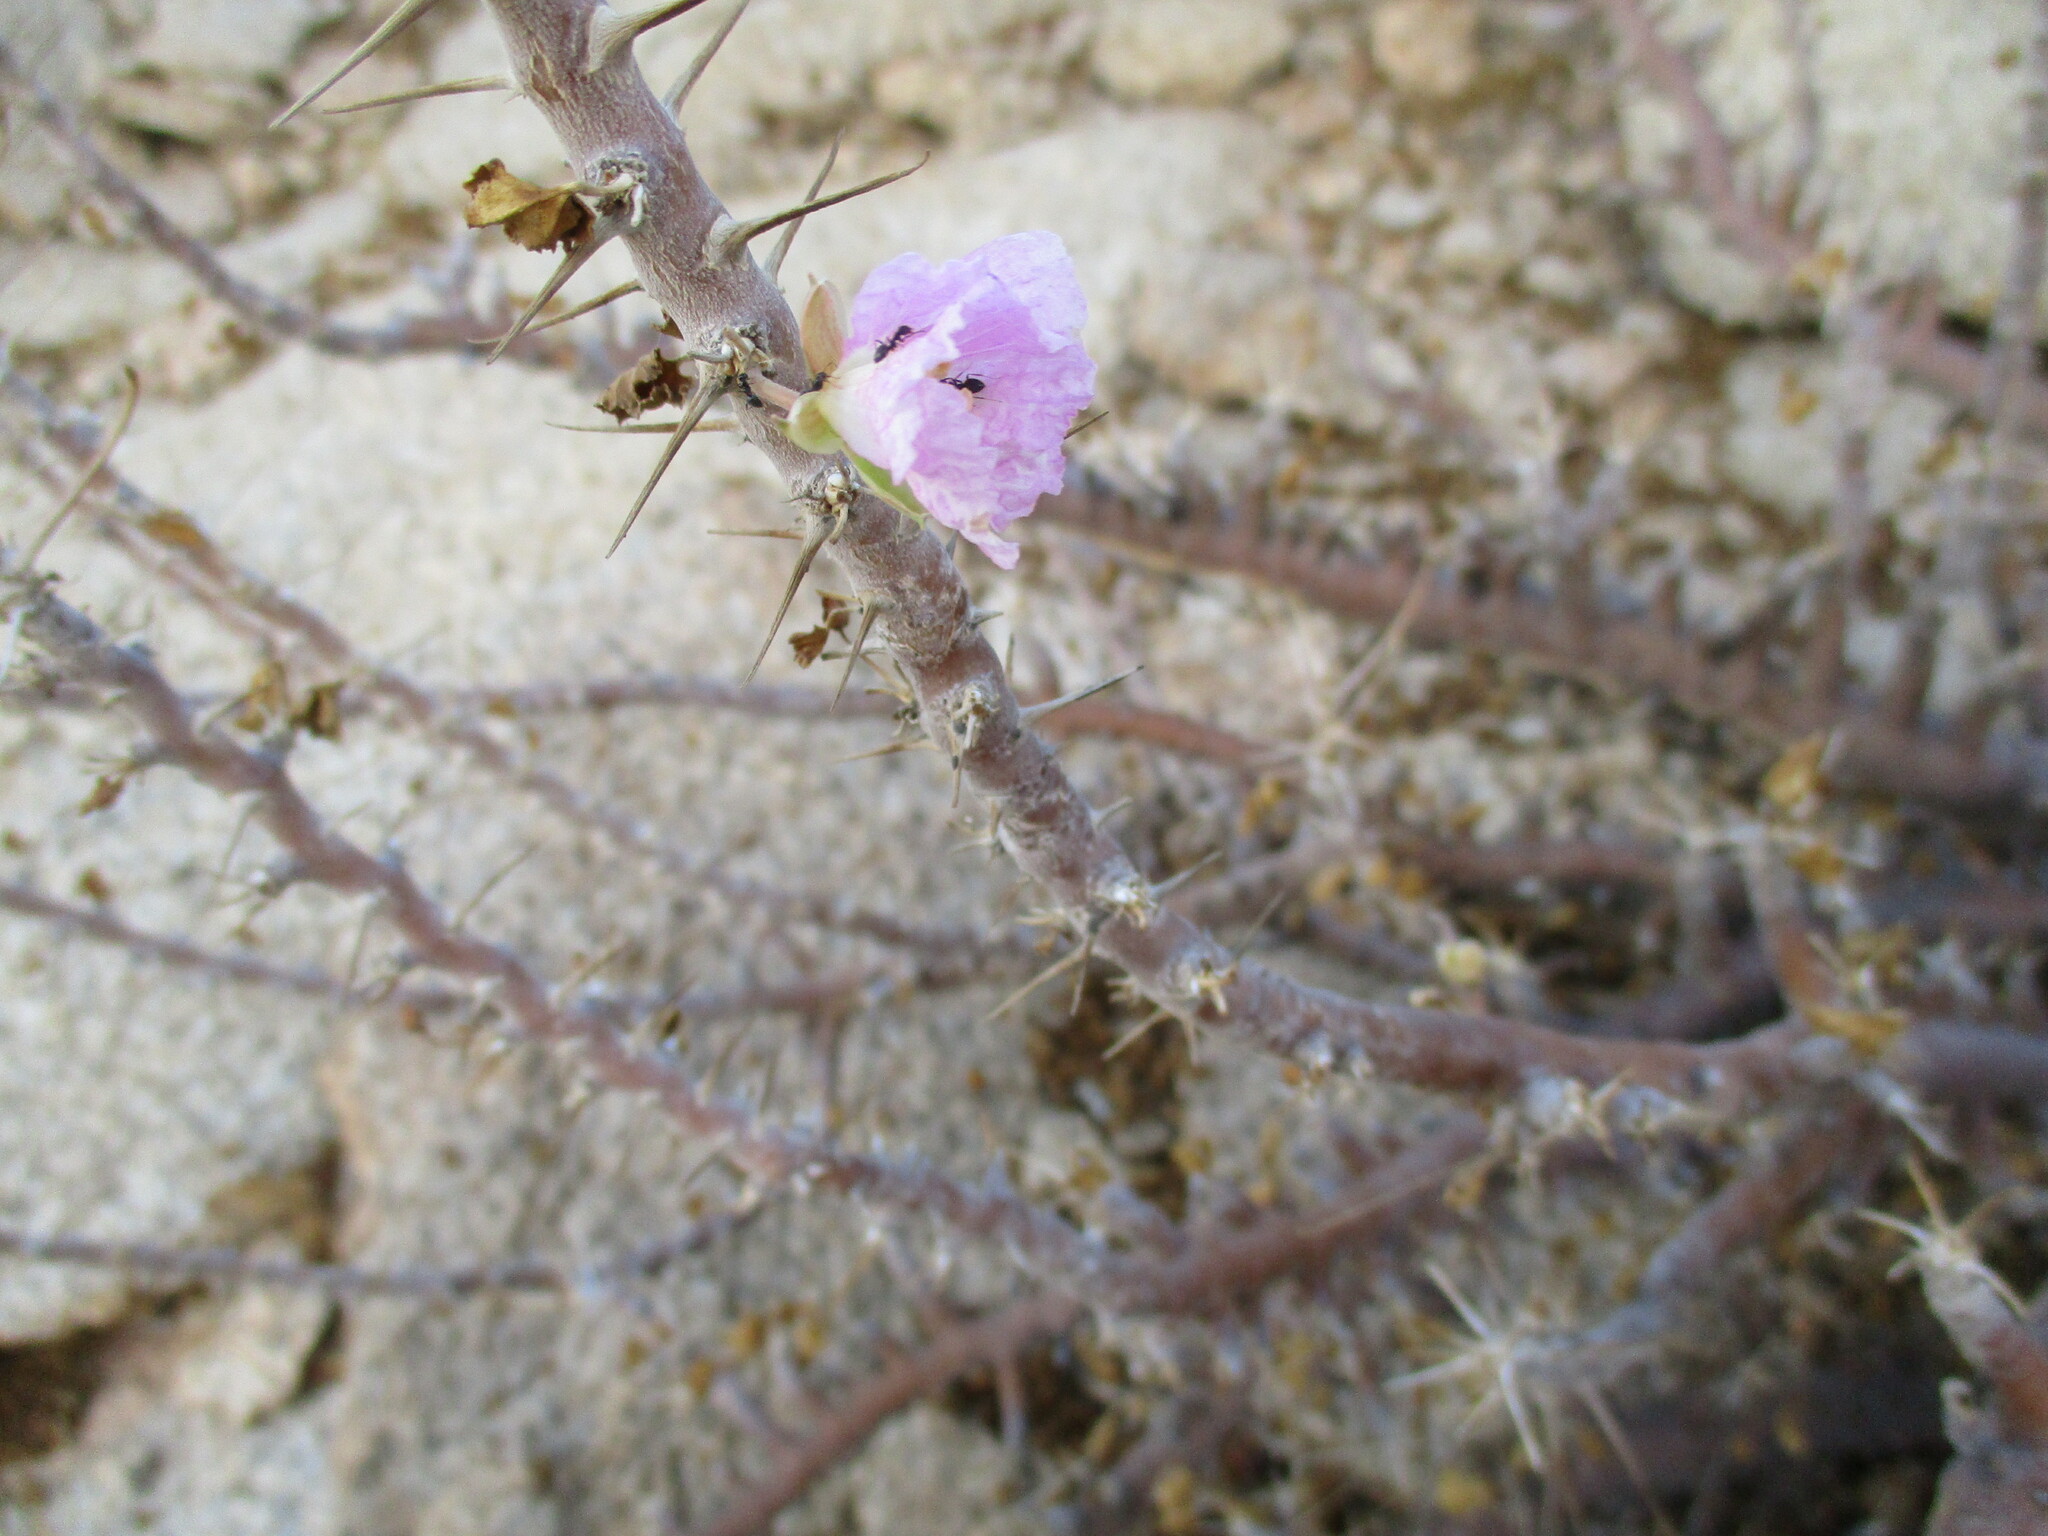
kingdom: Plantae
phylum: Tracheophyta
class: Magnoliopsida
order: Geraniales
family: Geraniaceae
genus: Monsonia
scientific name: Monsonia marlothii
